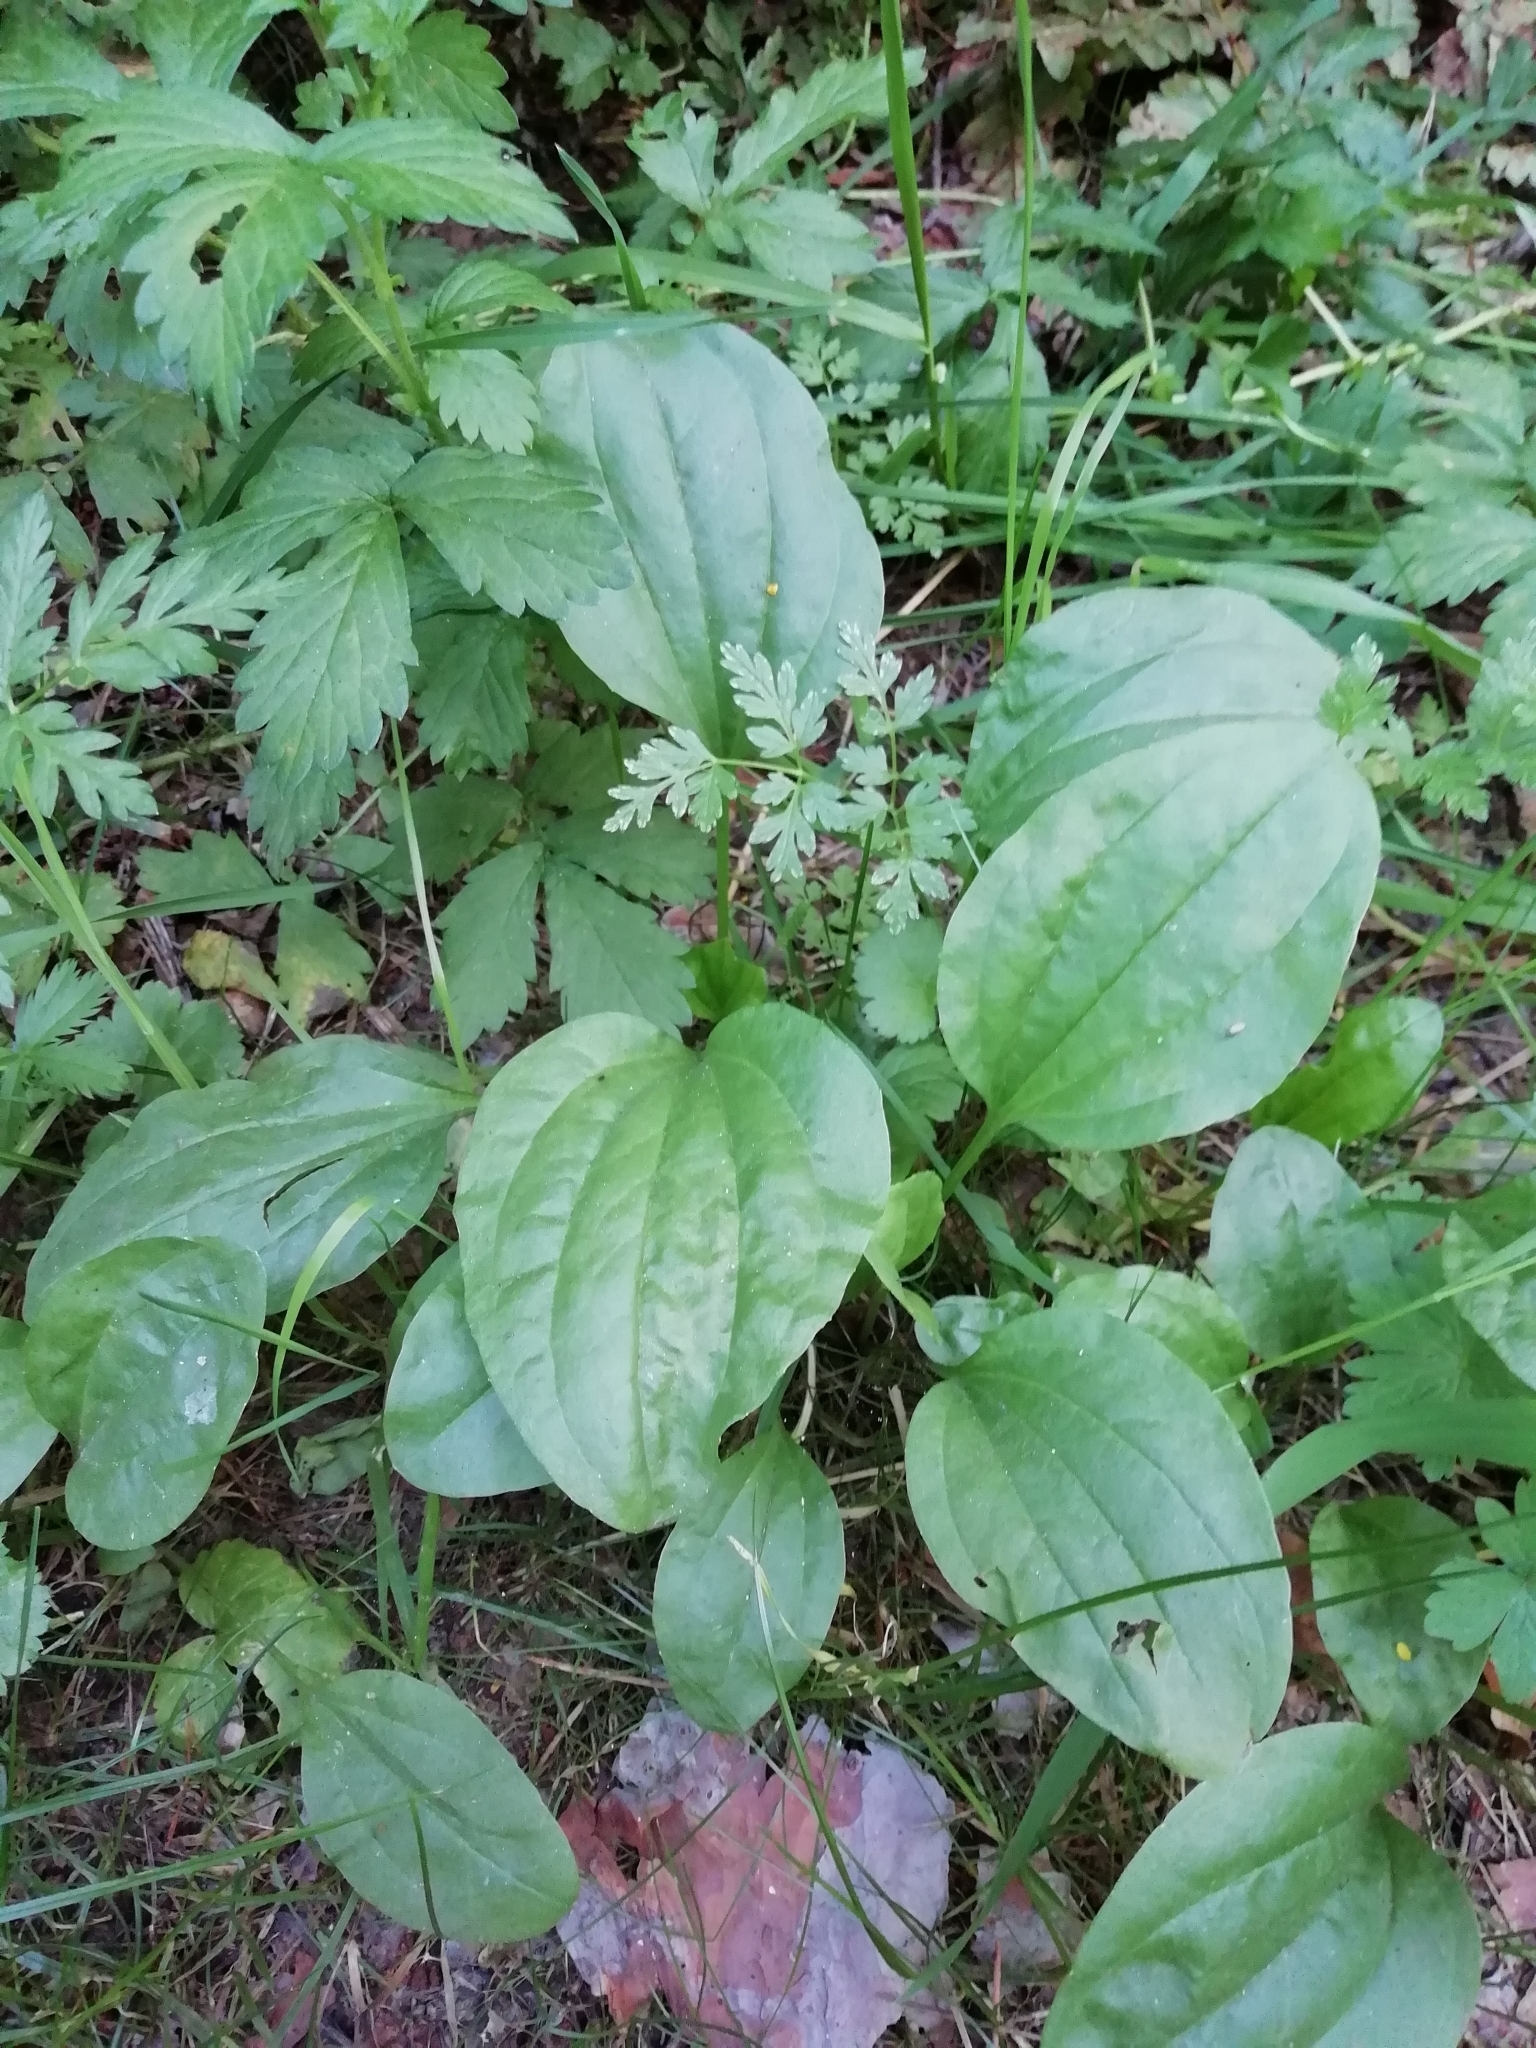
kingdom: Plantae
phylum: Tracheophyta
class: Magnoliopsida
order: Lamiales
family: Plantaginaceae
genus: Plantago
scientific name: Plantago major
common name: Common plantain
